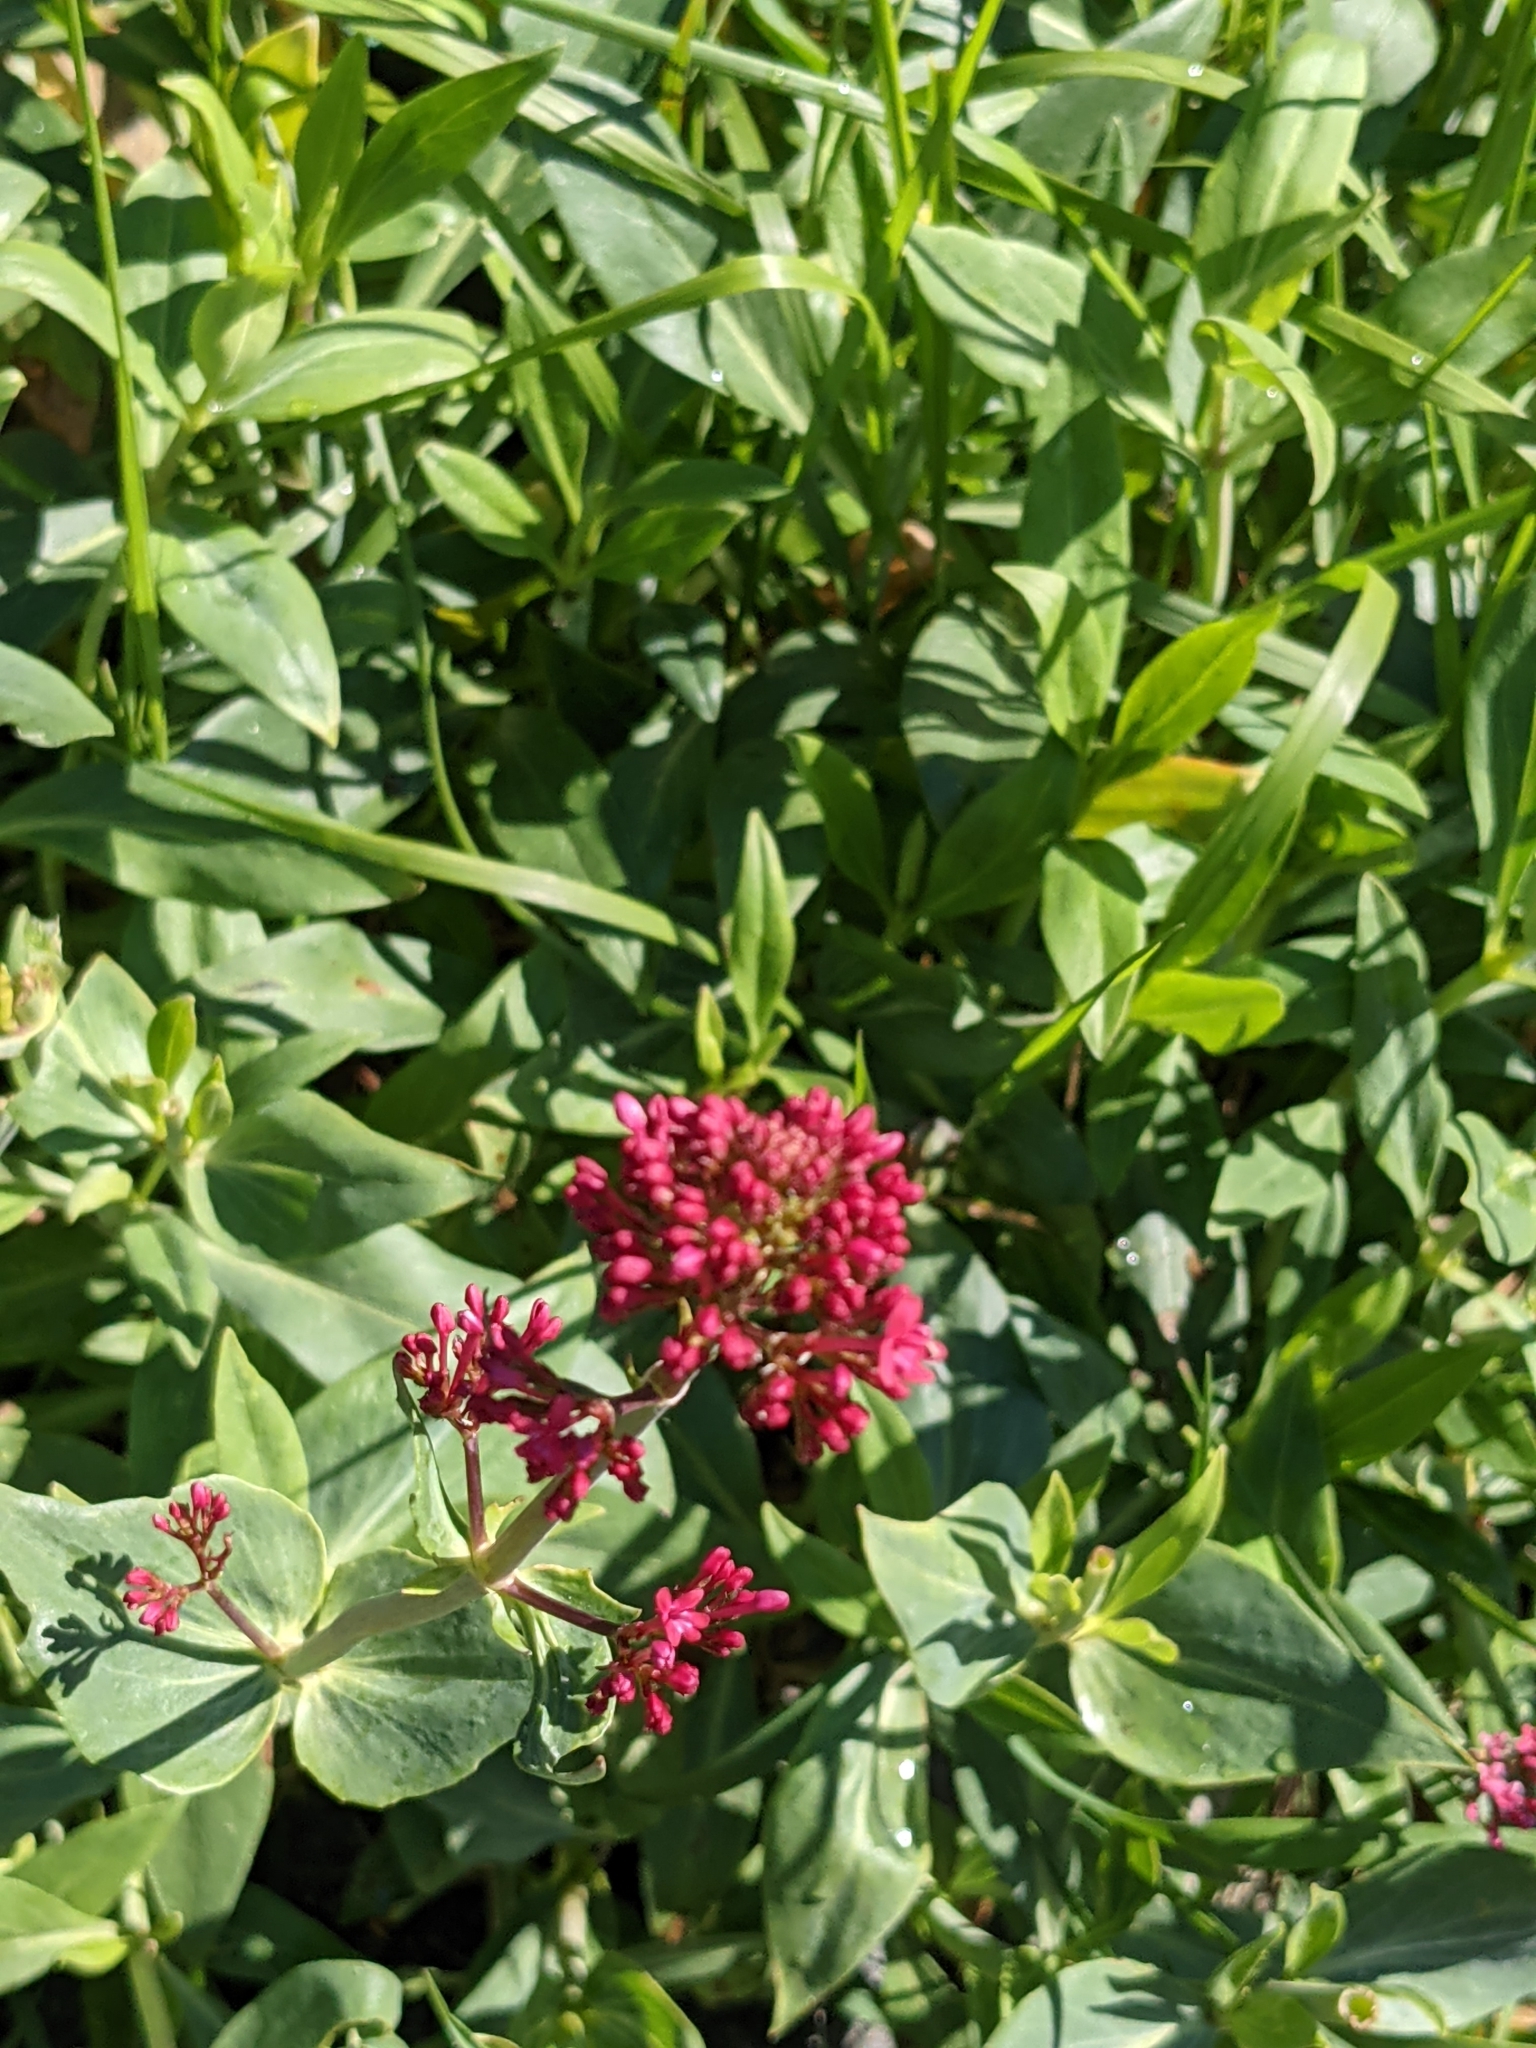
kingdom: Plantae
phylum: Tracheophyta
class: Magnoliopsida
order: Dipsacales
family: Caprifoliaceae
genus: Centranthus
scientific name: Centranthus ruber
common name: Red valerian
